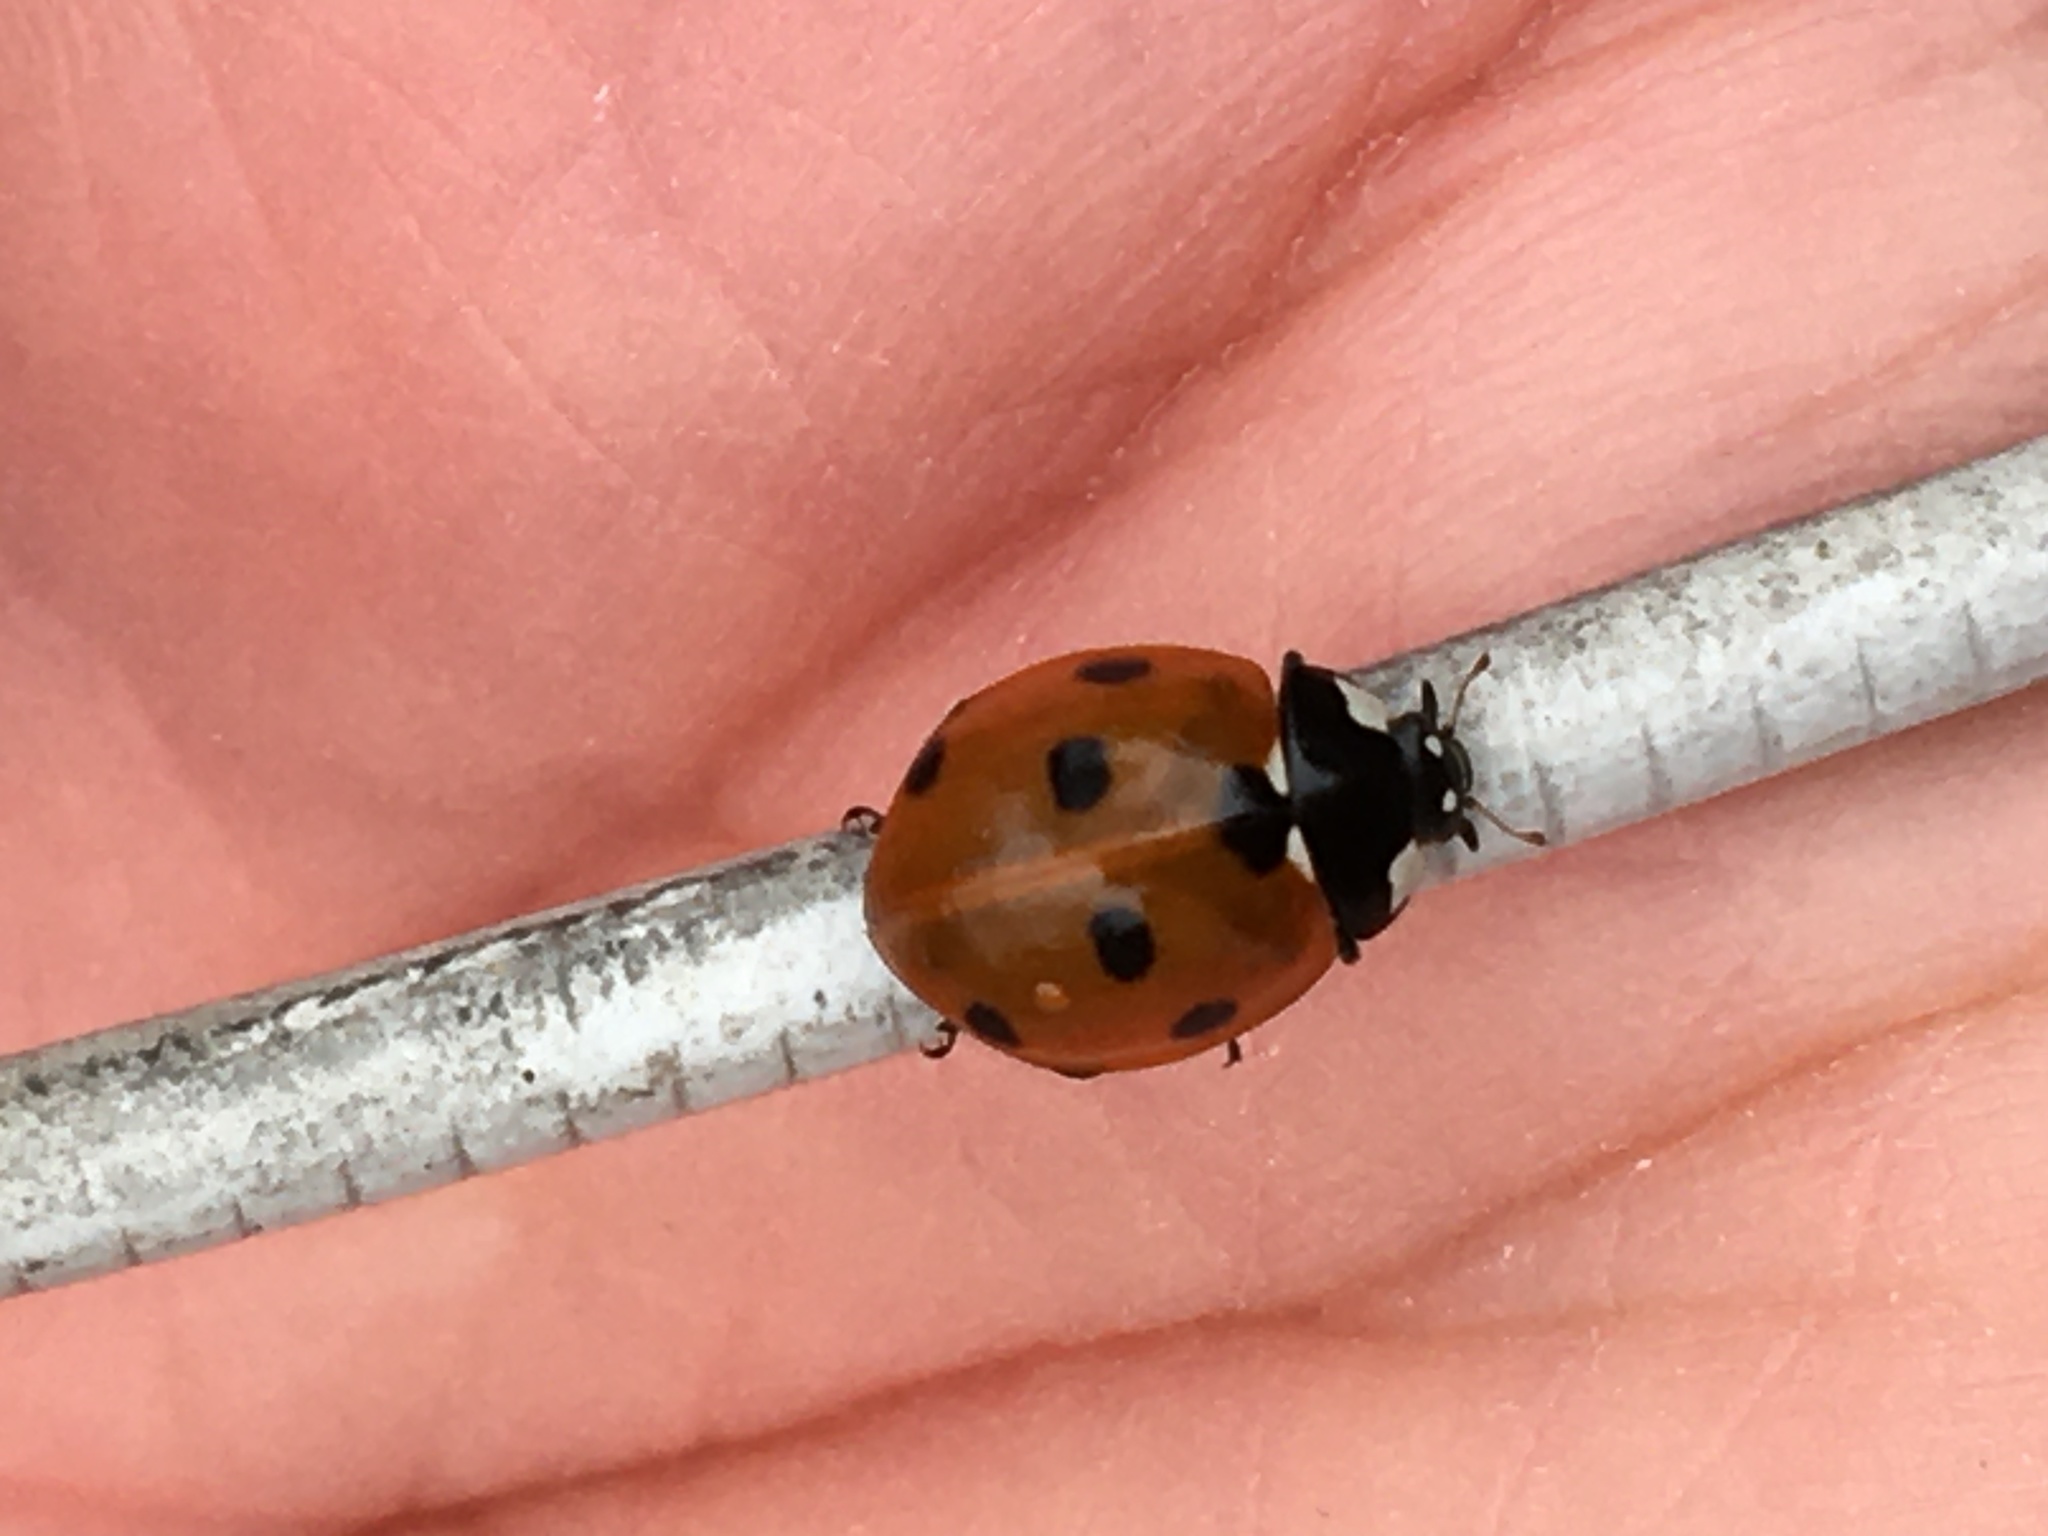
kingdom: Animalia
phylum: Arthropoda
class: Insecta
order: Coleoptera
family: Coccinellidae
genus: Coccinella
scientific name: Coccinella septempunctata
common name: Sevenspotted lady beetle
